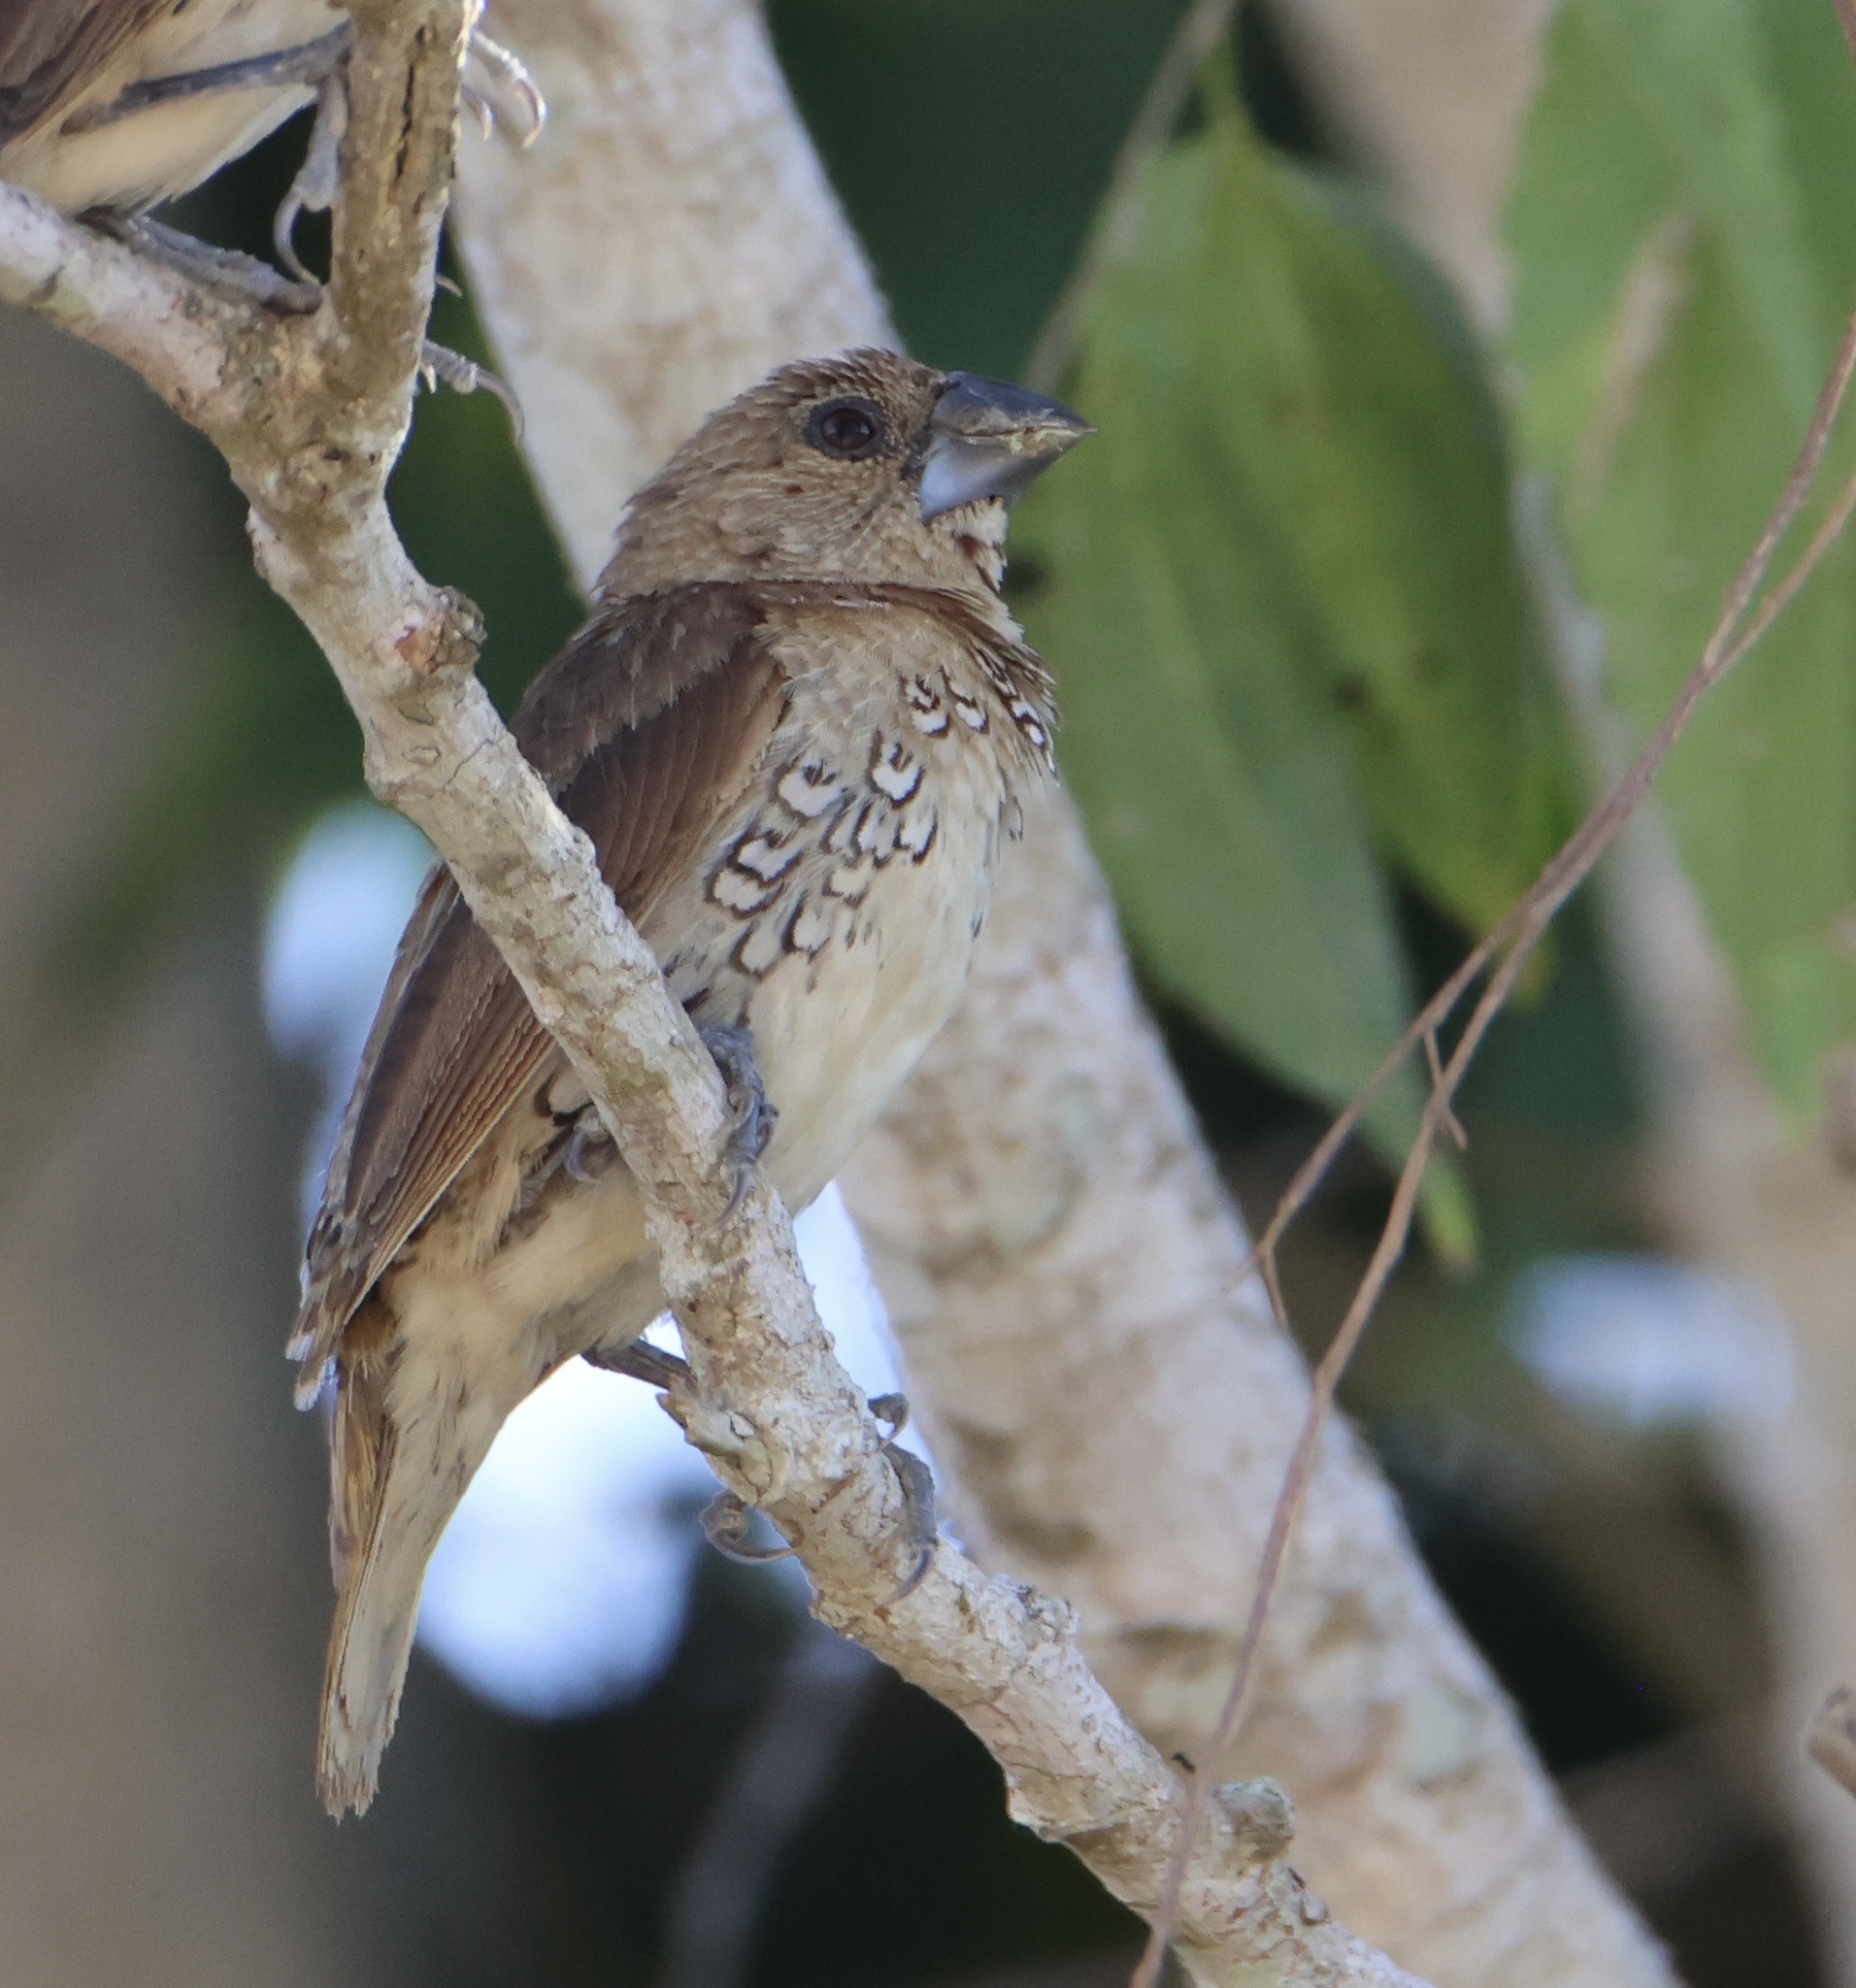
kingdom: Animalia
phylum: Chordata
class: Aves
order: Passeriformes
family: Estrildidae
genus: Lonchura
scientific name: Lonchura punctulata
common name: Scaly-breasted munia
